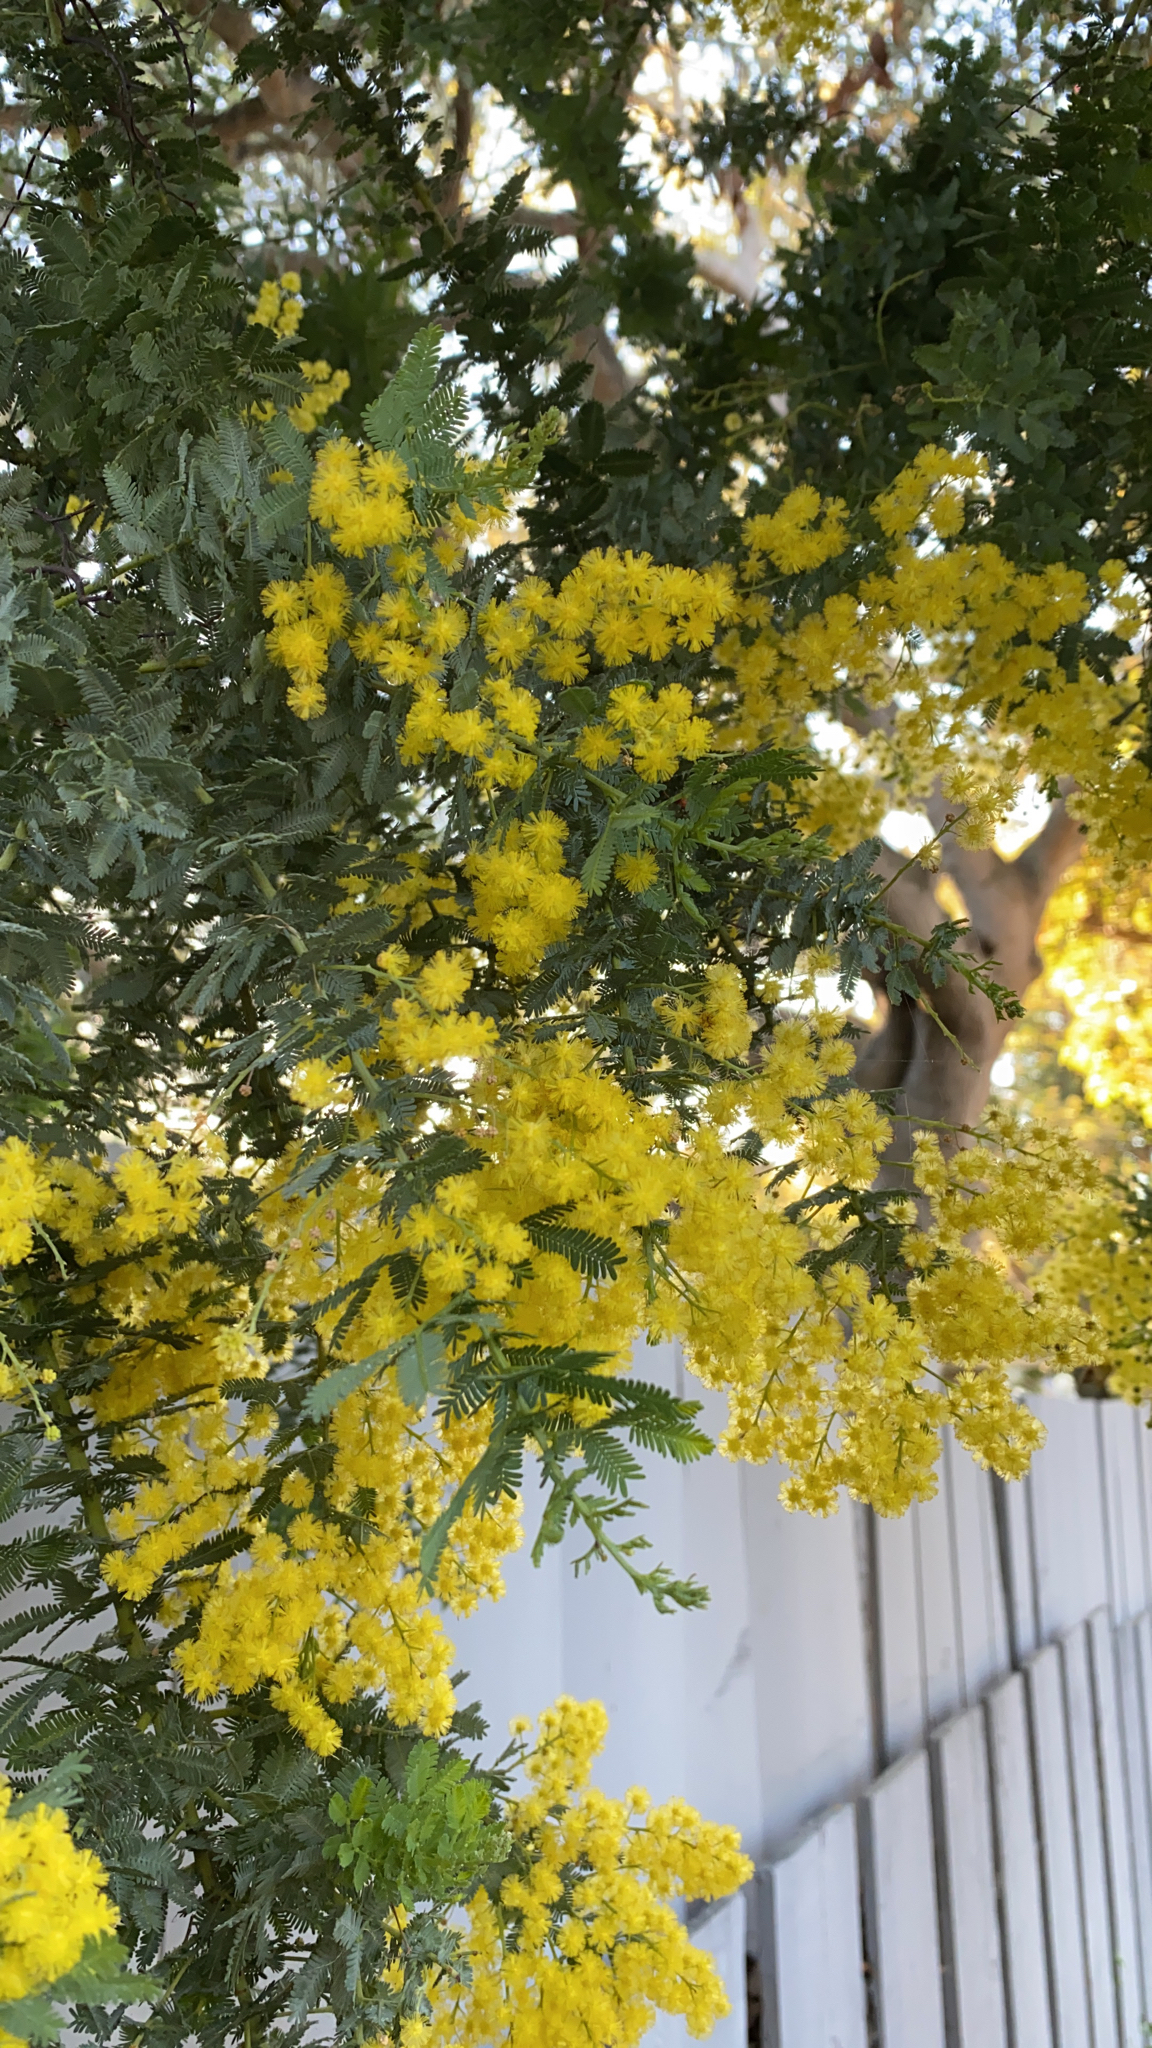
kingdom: Plantae
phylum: Tracheophyta
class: Magnoliopsida
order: Fabales
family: Fabaceae
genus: Acacia
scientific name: Acacia baileyana
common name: Cootamundra wattle
